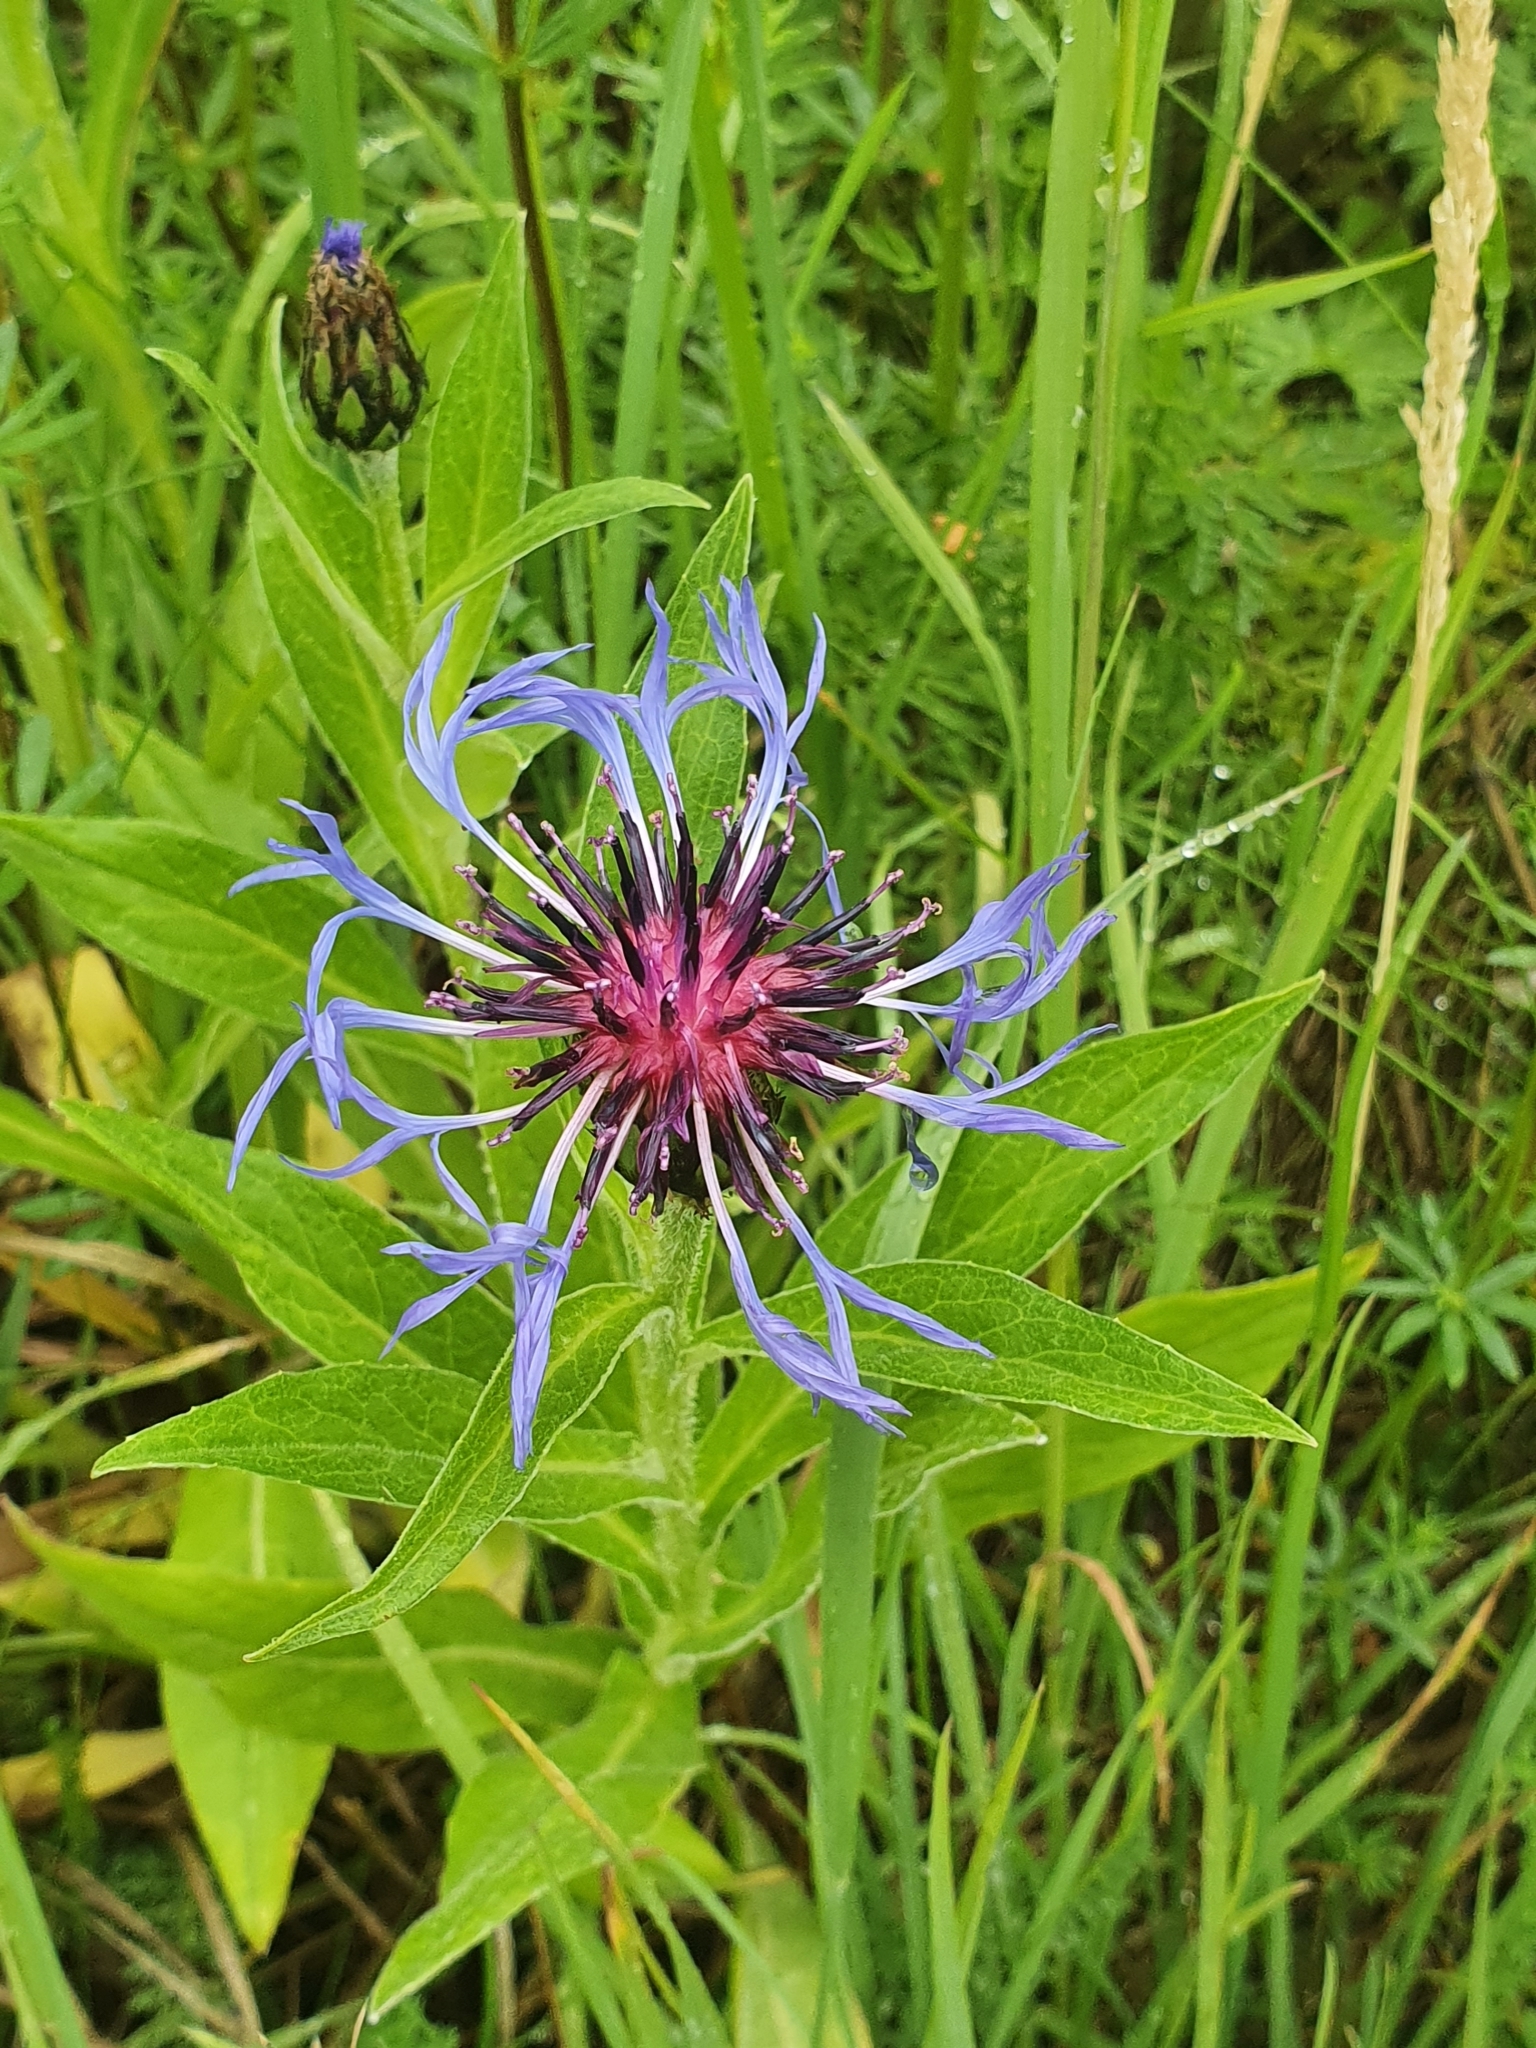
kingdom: Plantae
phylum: Tracheophyta
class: Magnoliopsida
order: Asterales
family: Asteraceae
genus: Centaurea
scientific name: Centaurea montana
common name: Perennial cornflower
